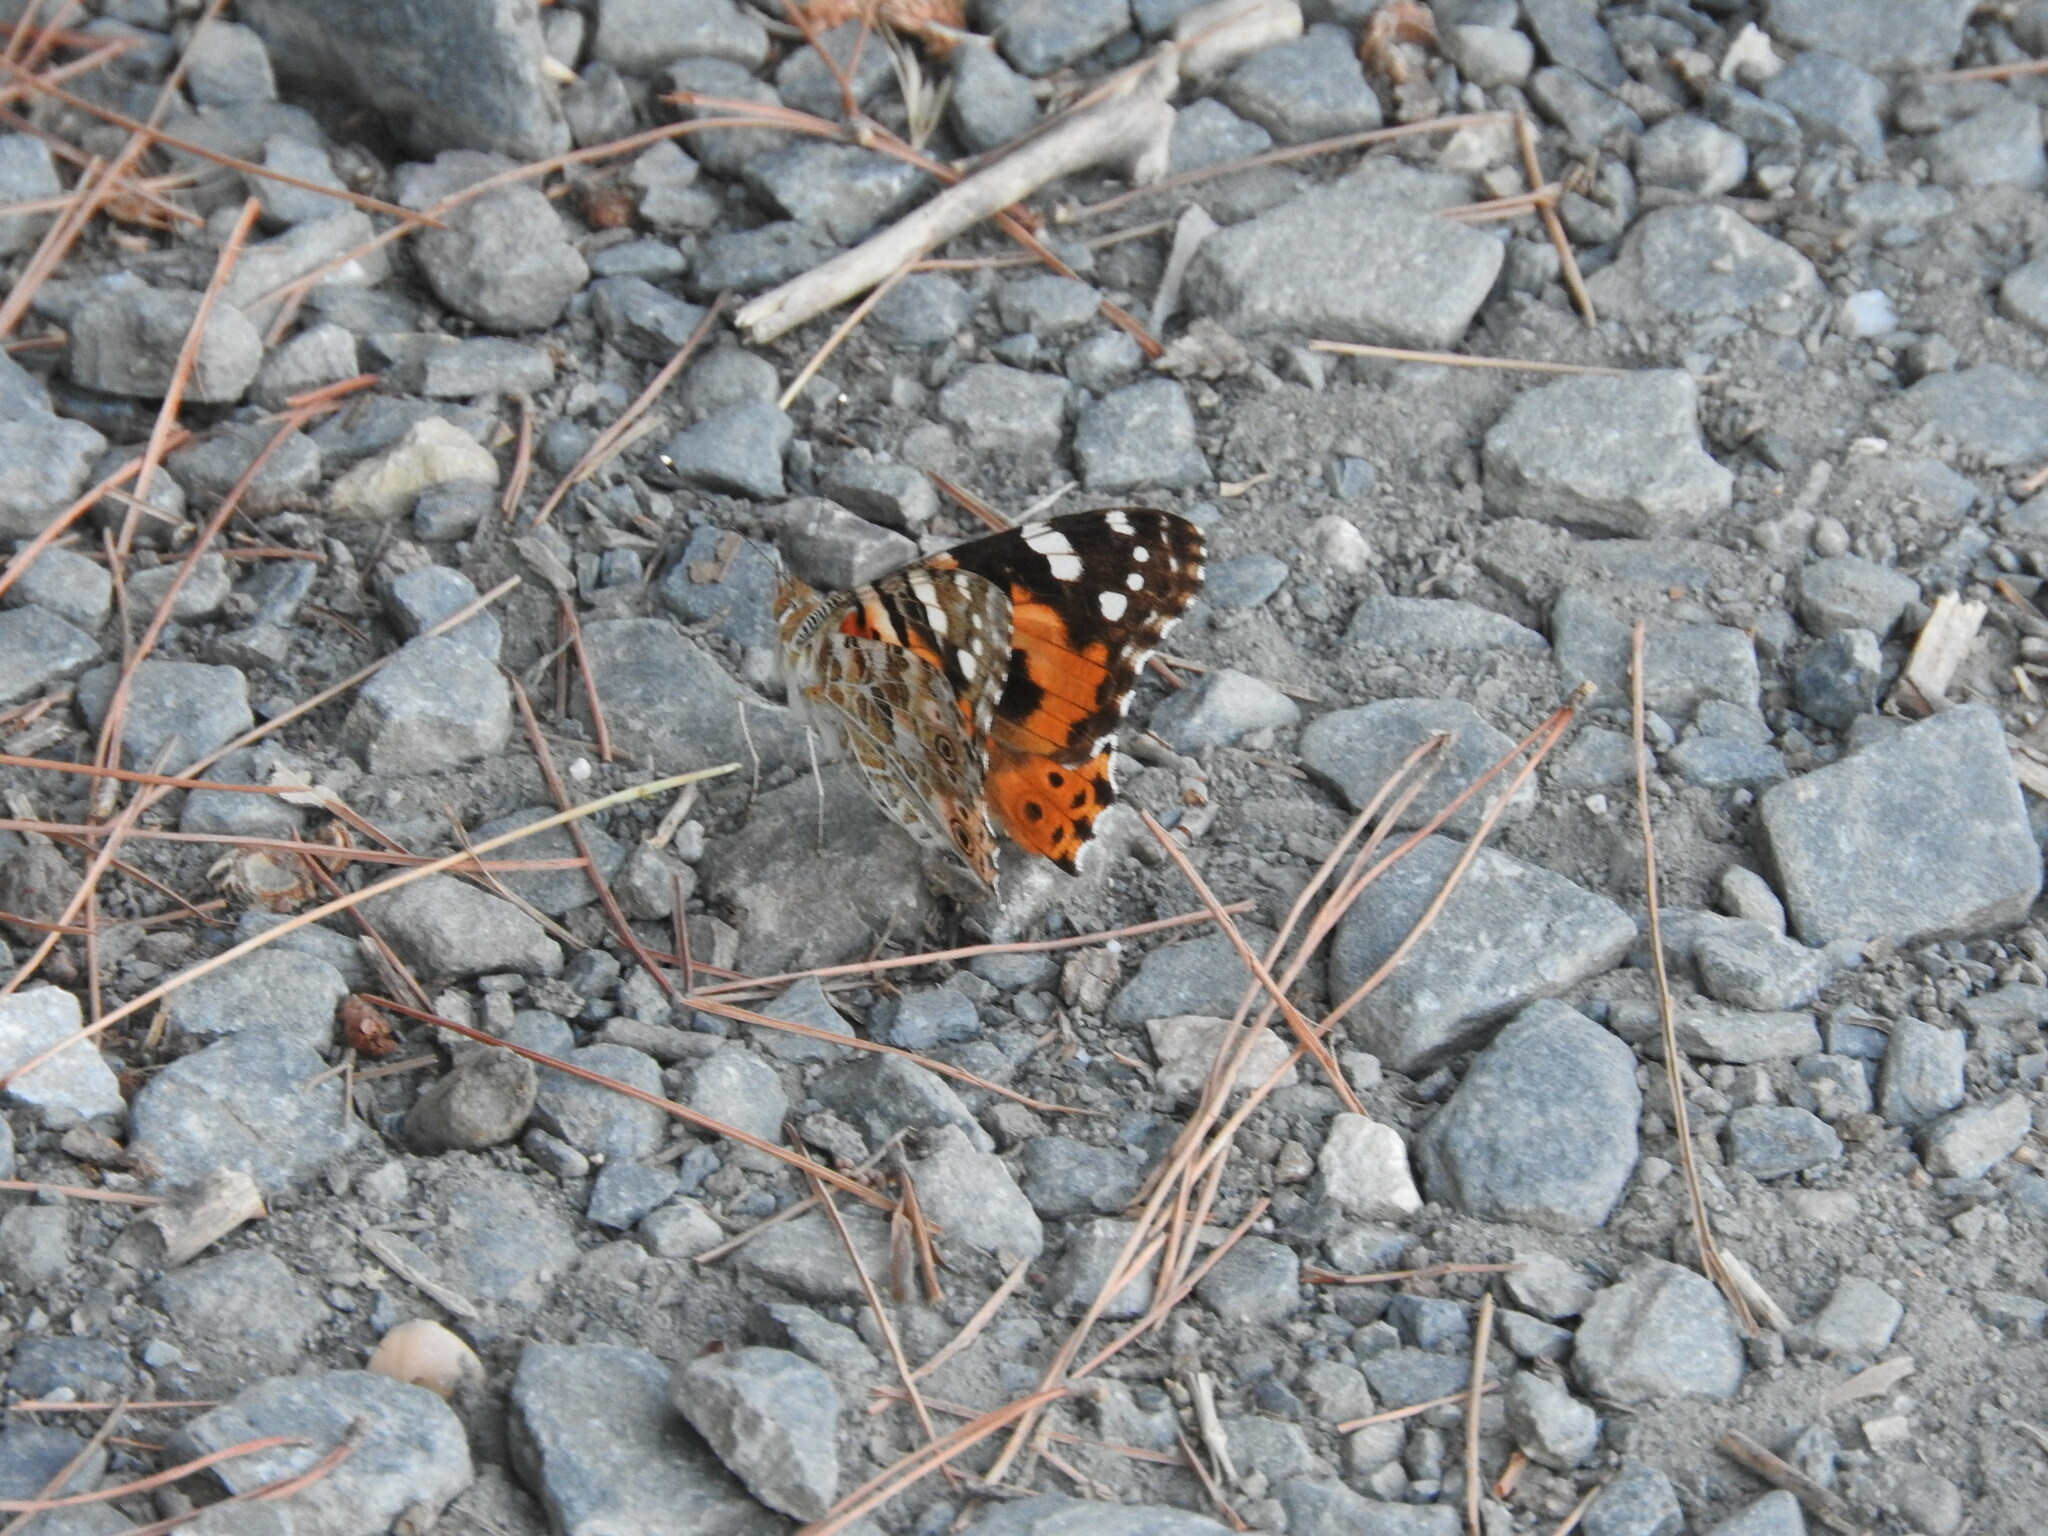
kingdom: Animalia
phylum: Arthropoda
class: Insecta
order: Lepidoptera
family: Nymphalidae
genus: Vanessa
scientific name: Vanessa cardui
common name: Painted lady
